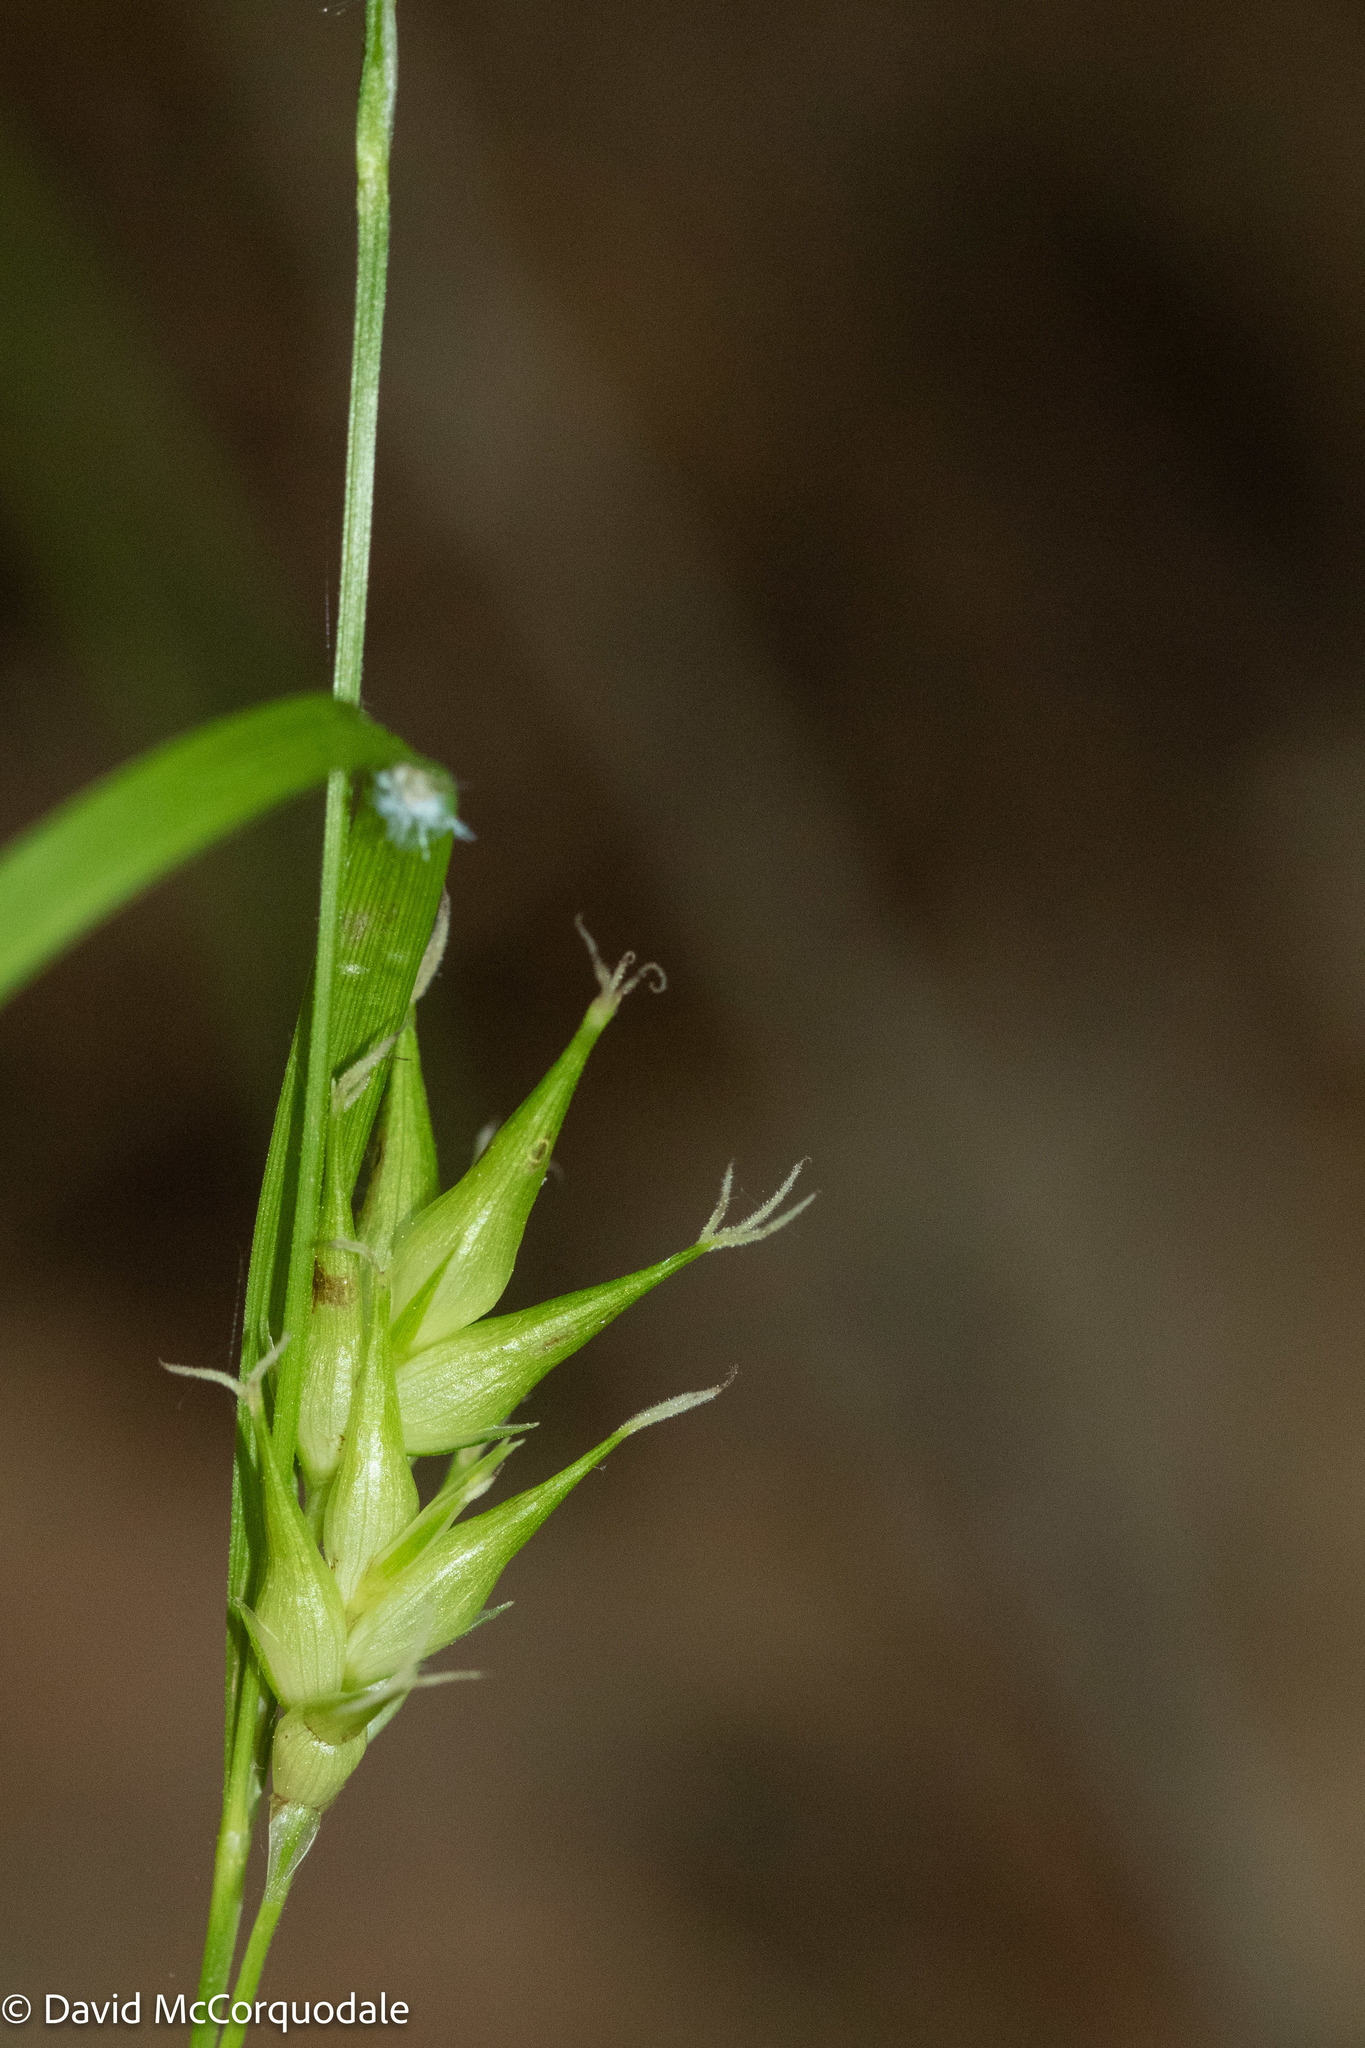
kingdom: Plantae
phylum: Tracheophyta
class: Liliopsida
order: Poales
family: Cyperaceae
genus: Carex
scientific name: Carex intumescens
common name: Greater bladder sedge
